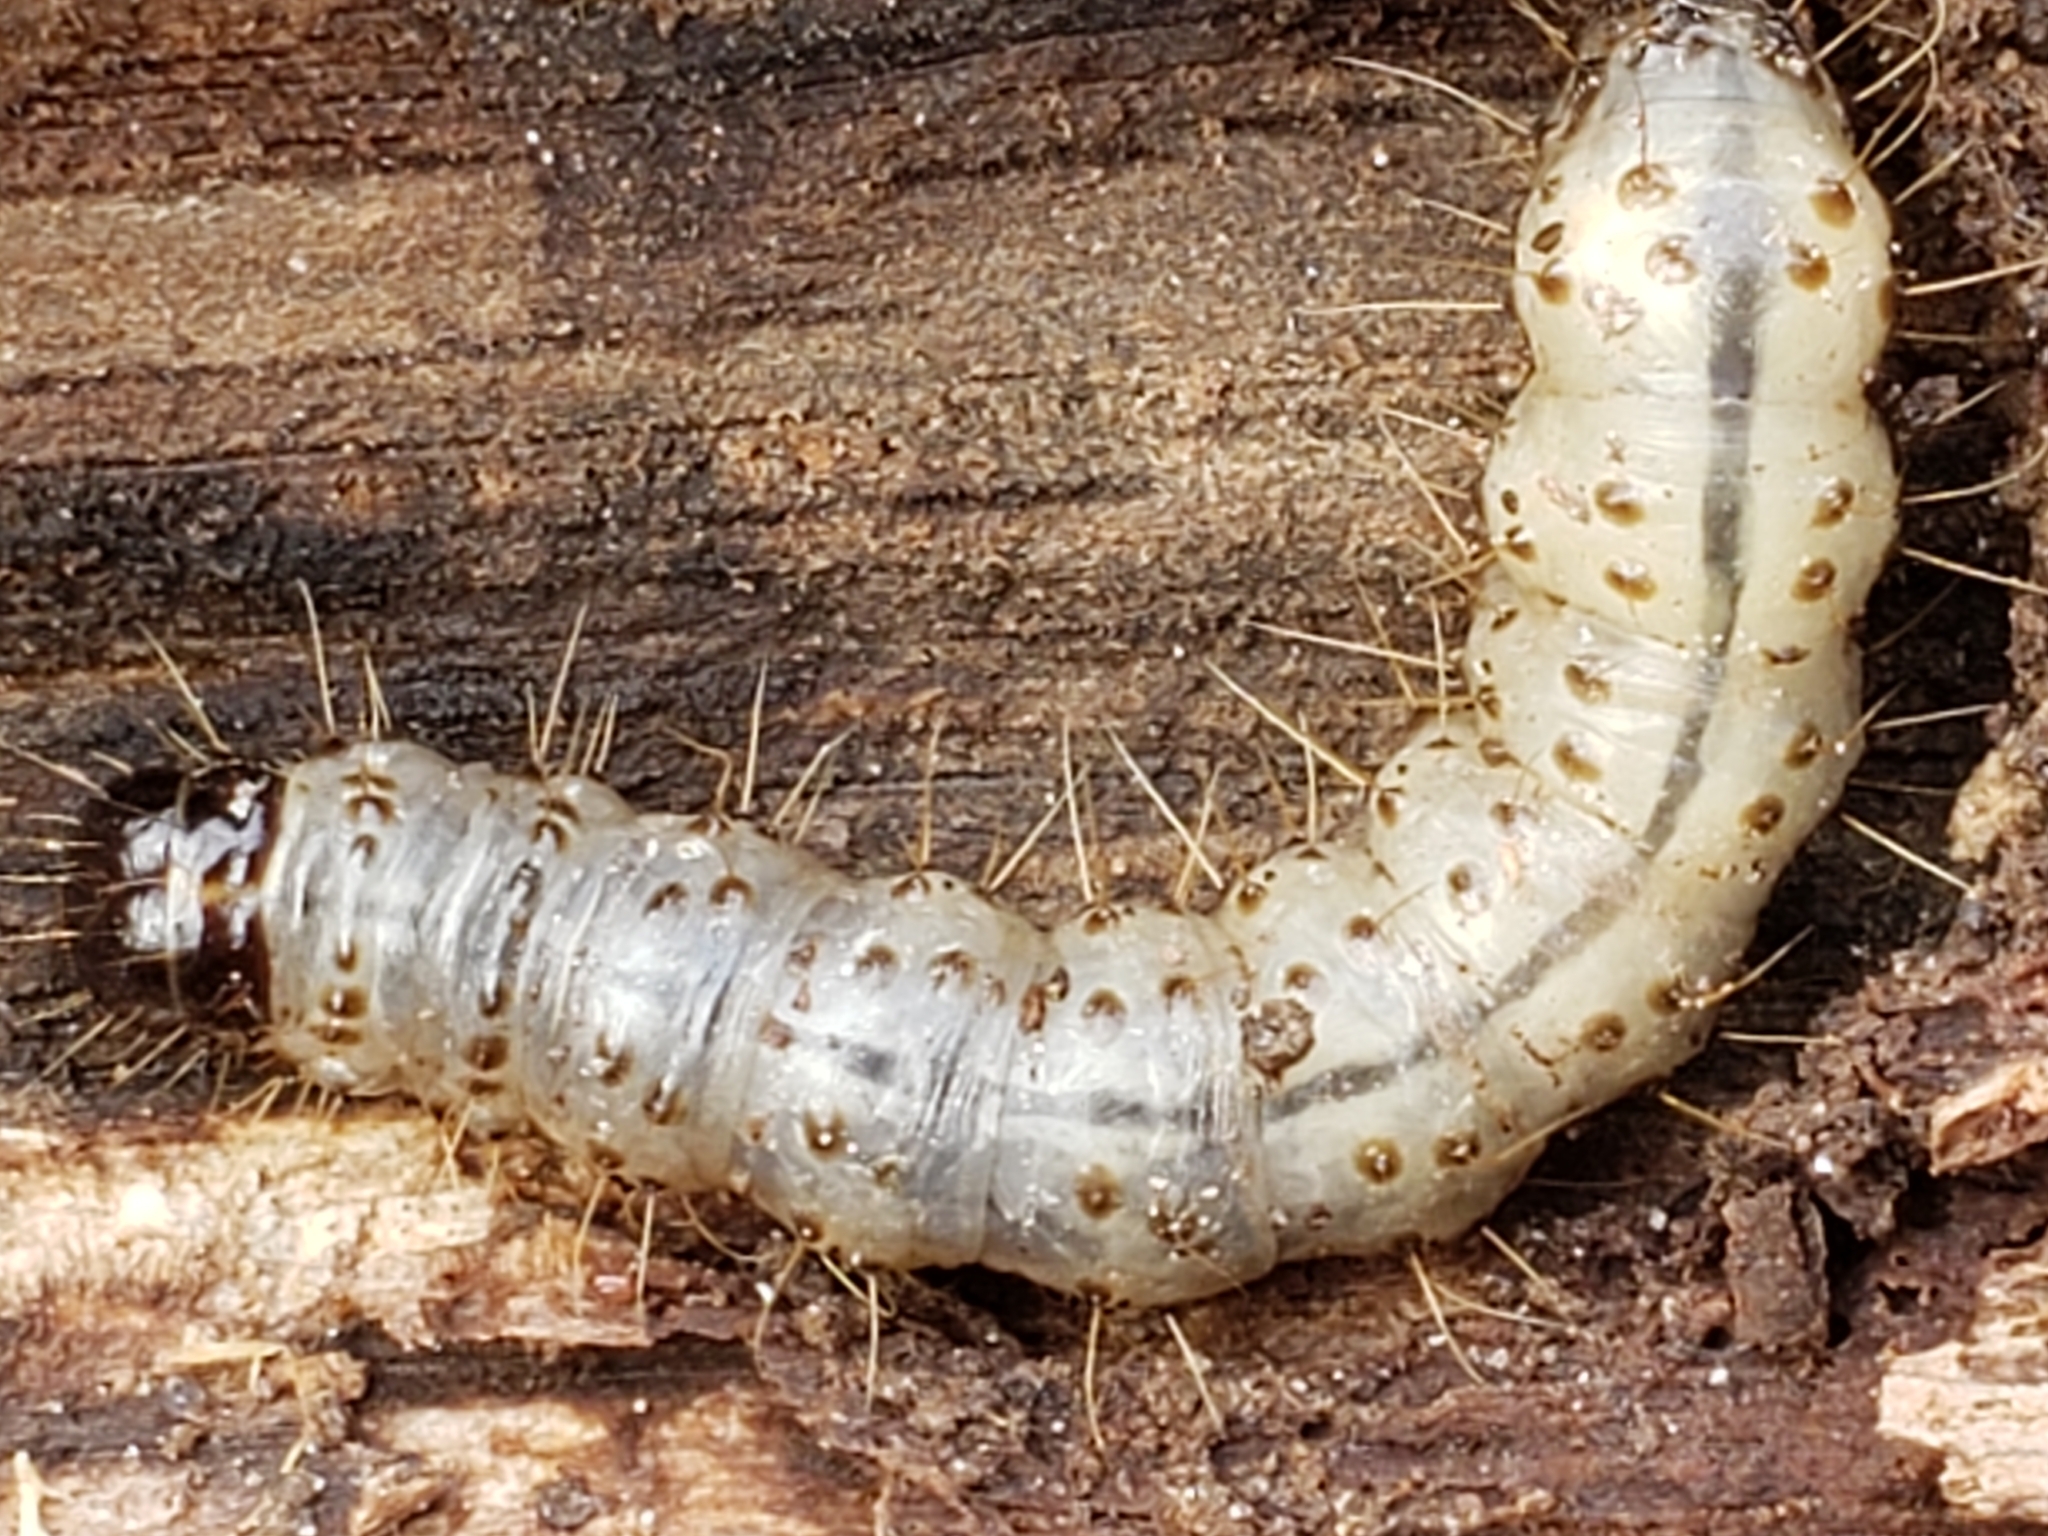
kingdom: Animalia
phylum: Arthropoda
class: Insecta
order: Lepidoptera
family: Erebidae
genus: Scolecocampa
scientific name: Scolecocampa liburna
